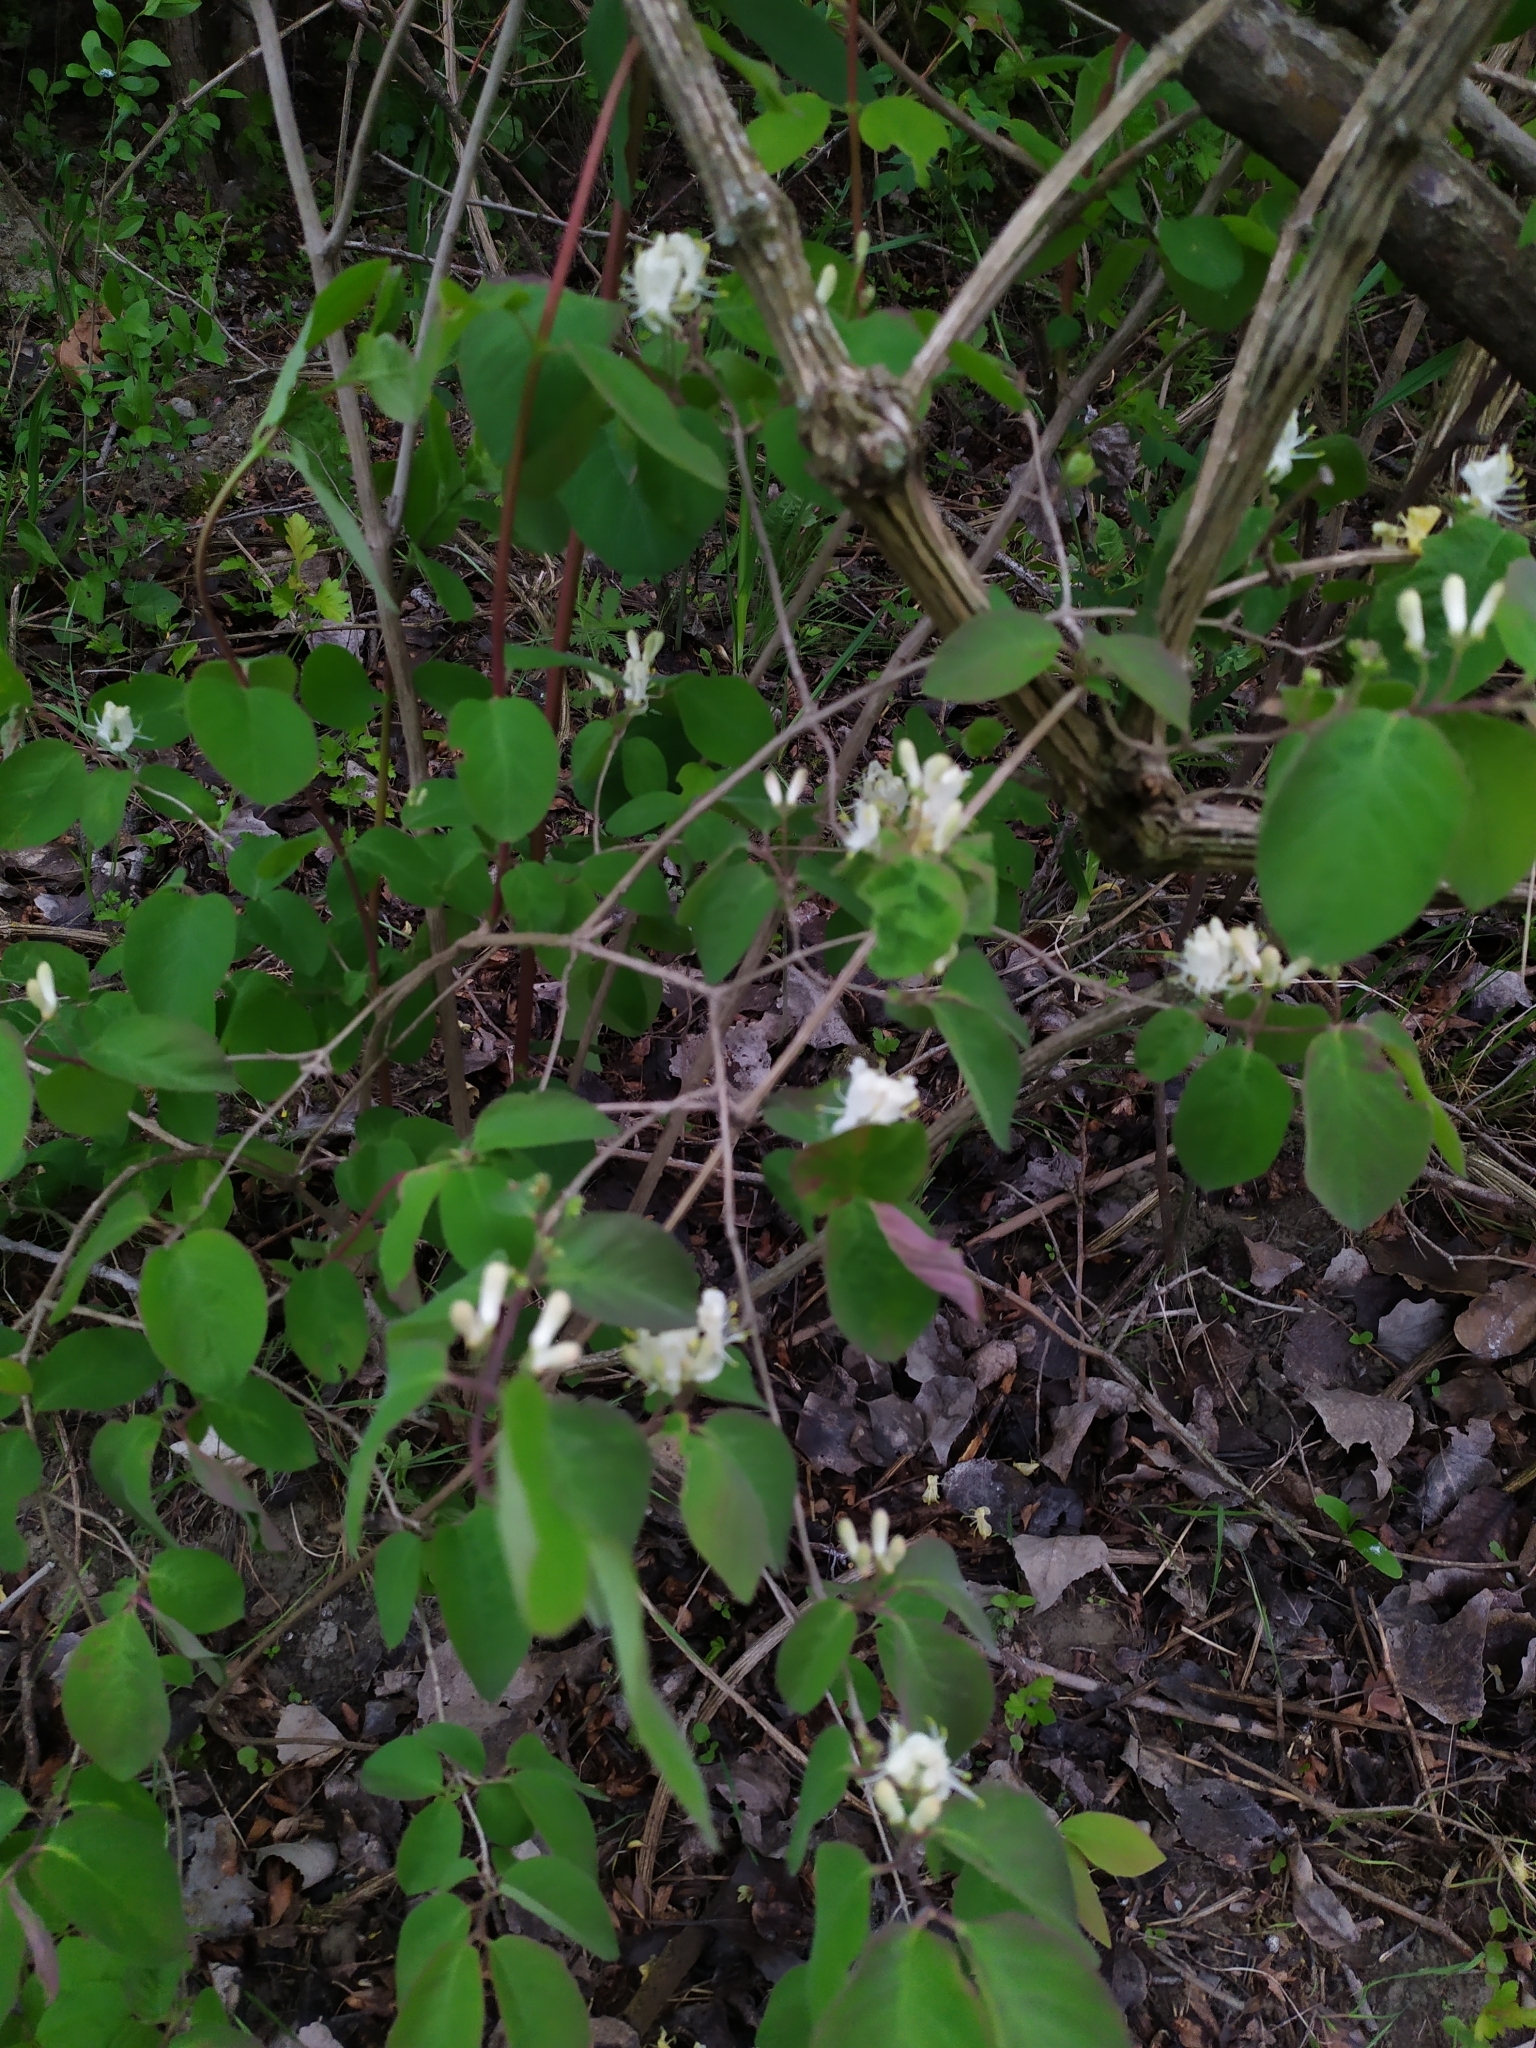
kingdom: Plantae
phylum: Tracheophyta
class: Magnoliopsida
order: Dipsacales
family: Caprifoliaceae
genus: Lonicera
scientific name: Lonicera xylosteum
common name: Fly honeysuckle
